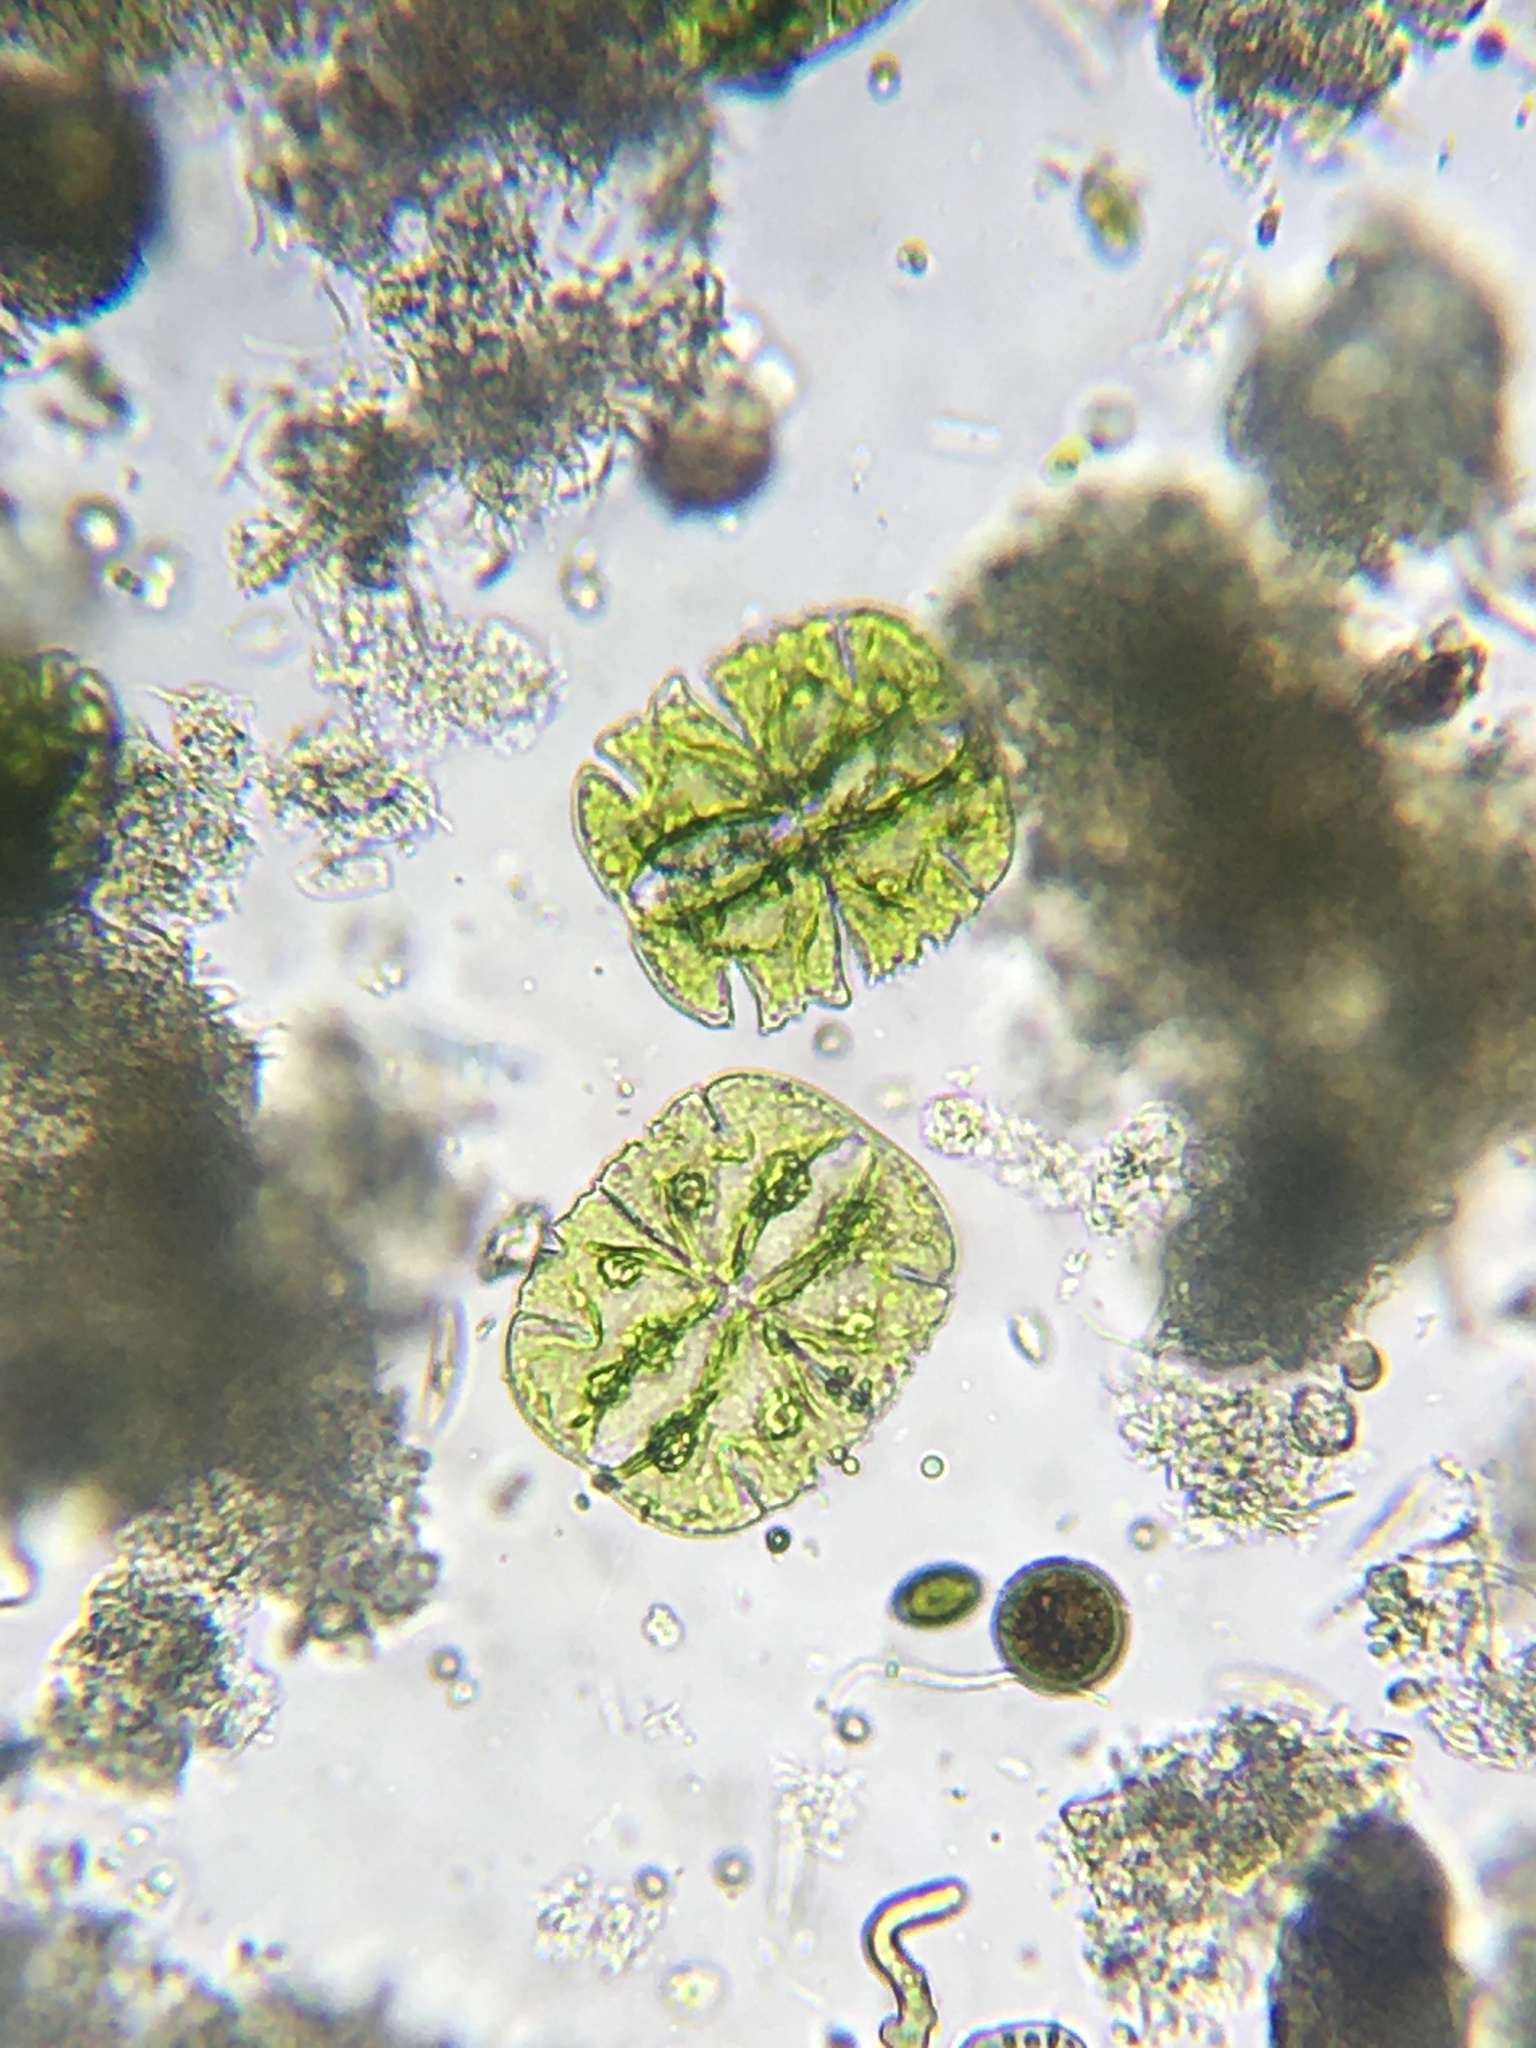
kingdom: Plantae
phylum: Charophyta
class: Conjugatophyceae
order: Desmidiales
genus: Micrasterias
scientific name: Micrasterias truncata
